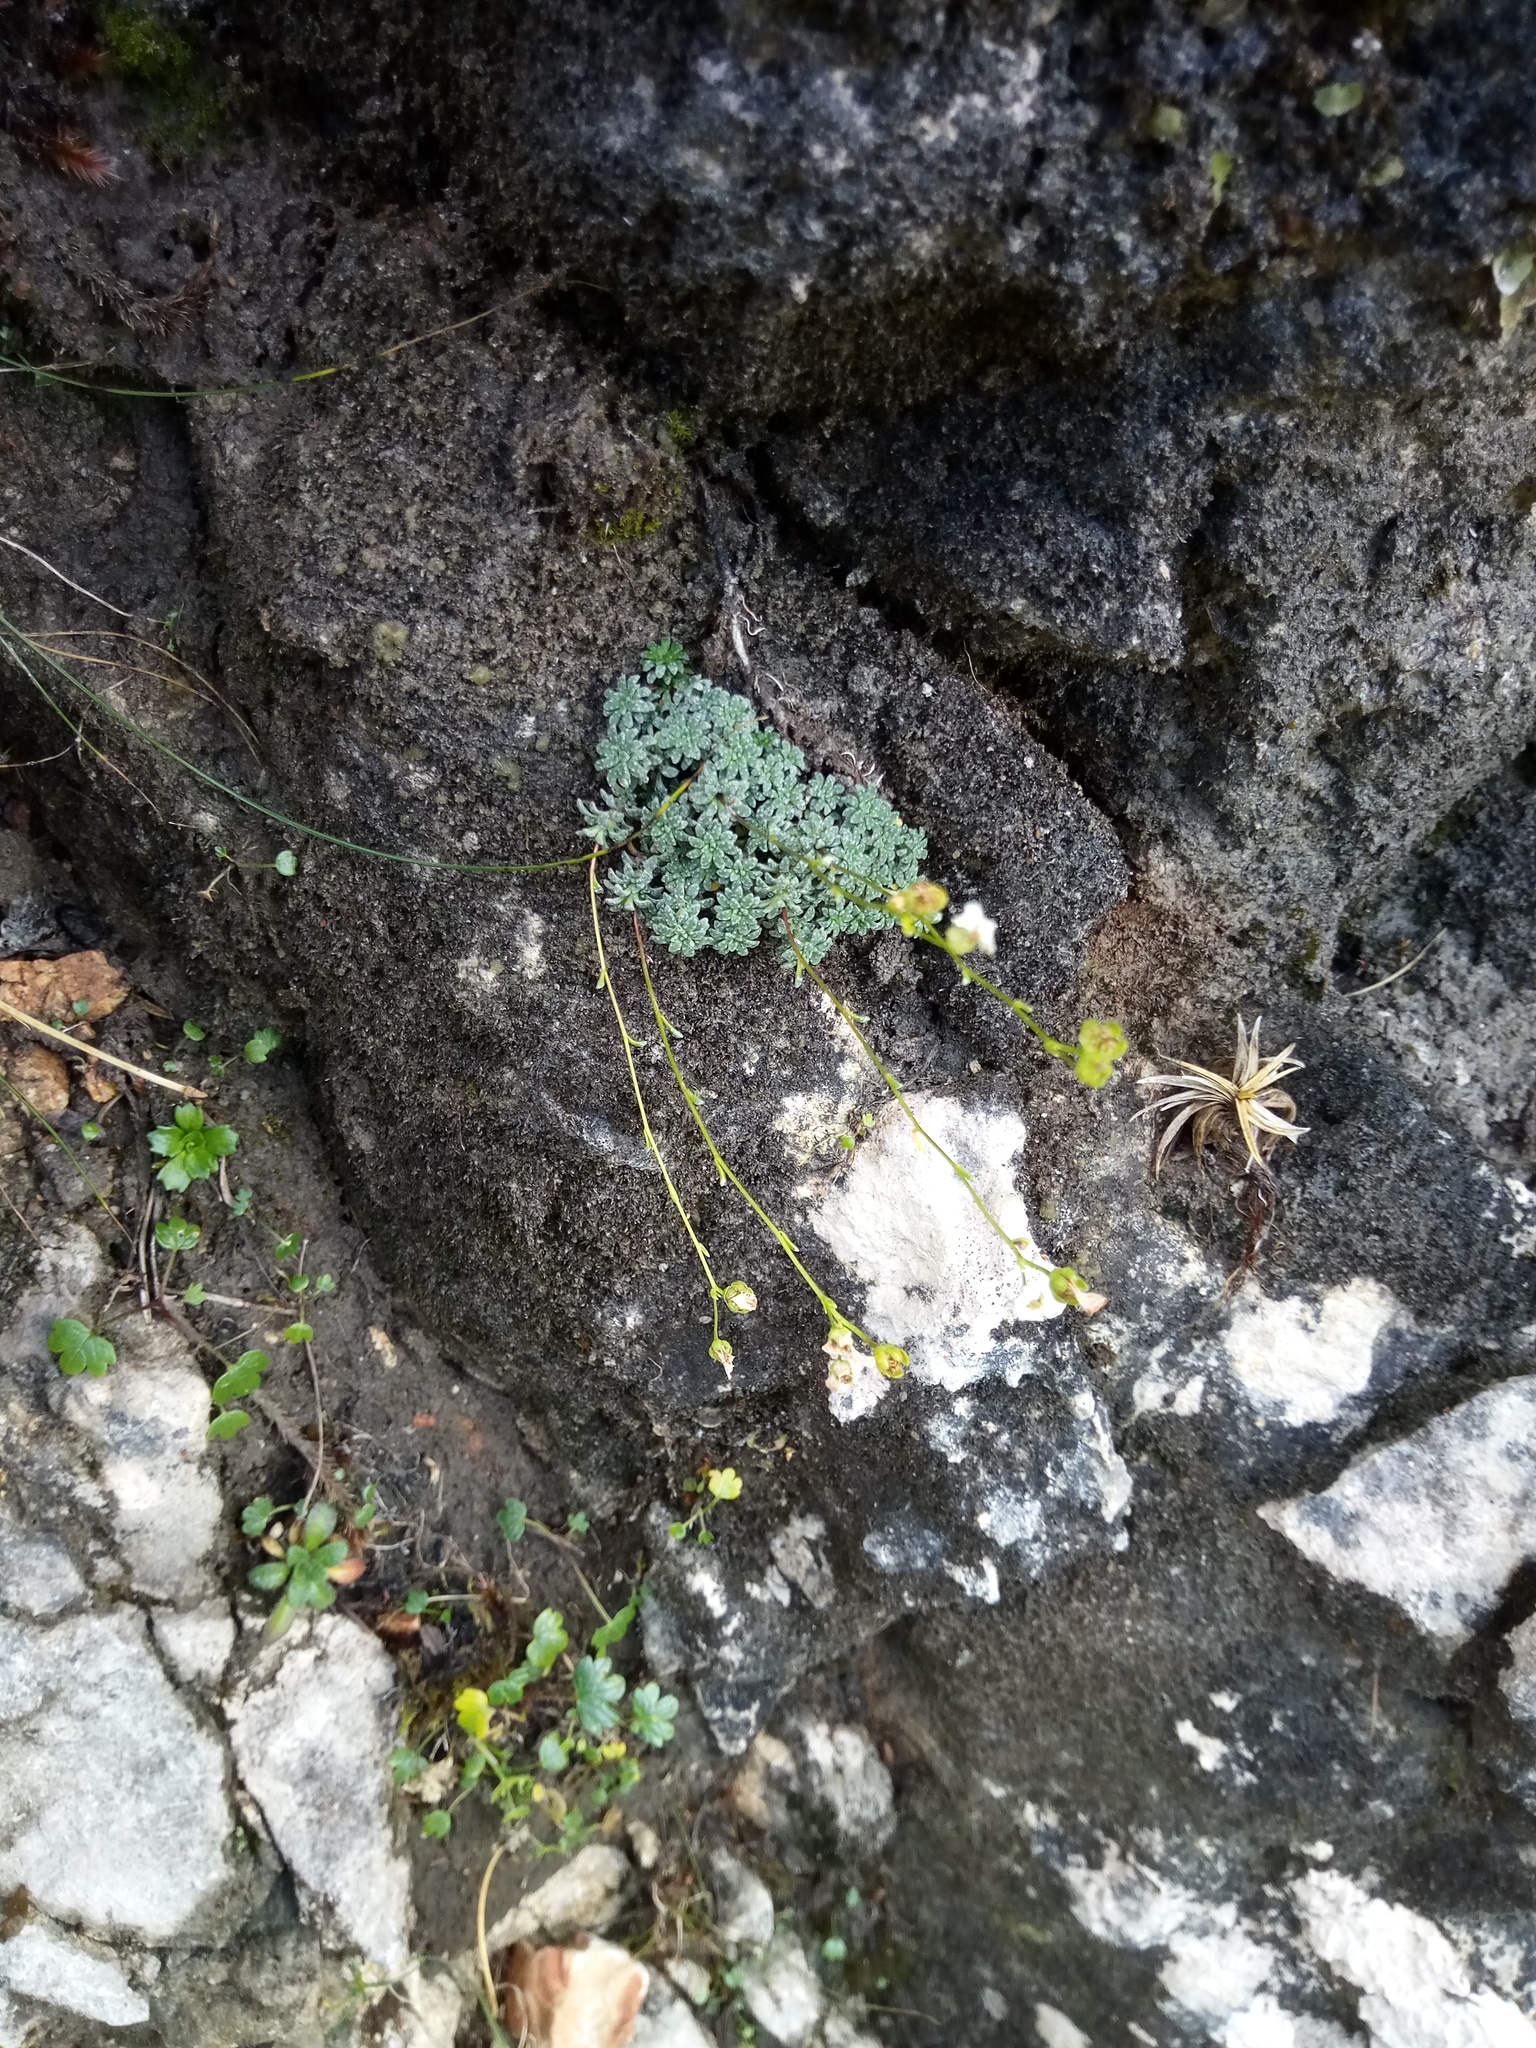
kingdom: Plantae
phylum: Tracheophyta
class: Magnoliopsida
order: Saxifragales
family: Saxifragaceae
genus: Saxifraga
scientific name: Saxifraga caesia
